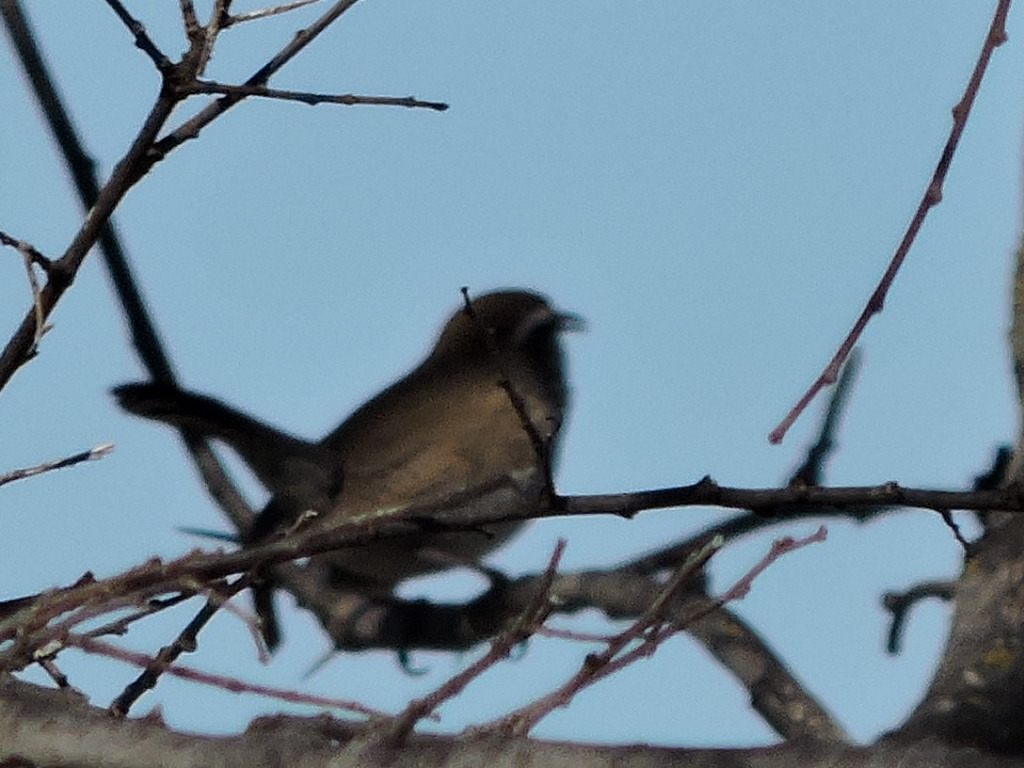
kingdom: Animalia
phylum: Chordata
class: Aves
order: Passeriformes
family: Troglodytidae
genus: Thryomanes
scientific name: Thryomanes bewickii
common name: Bewick's wren
